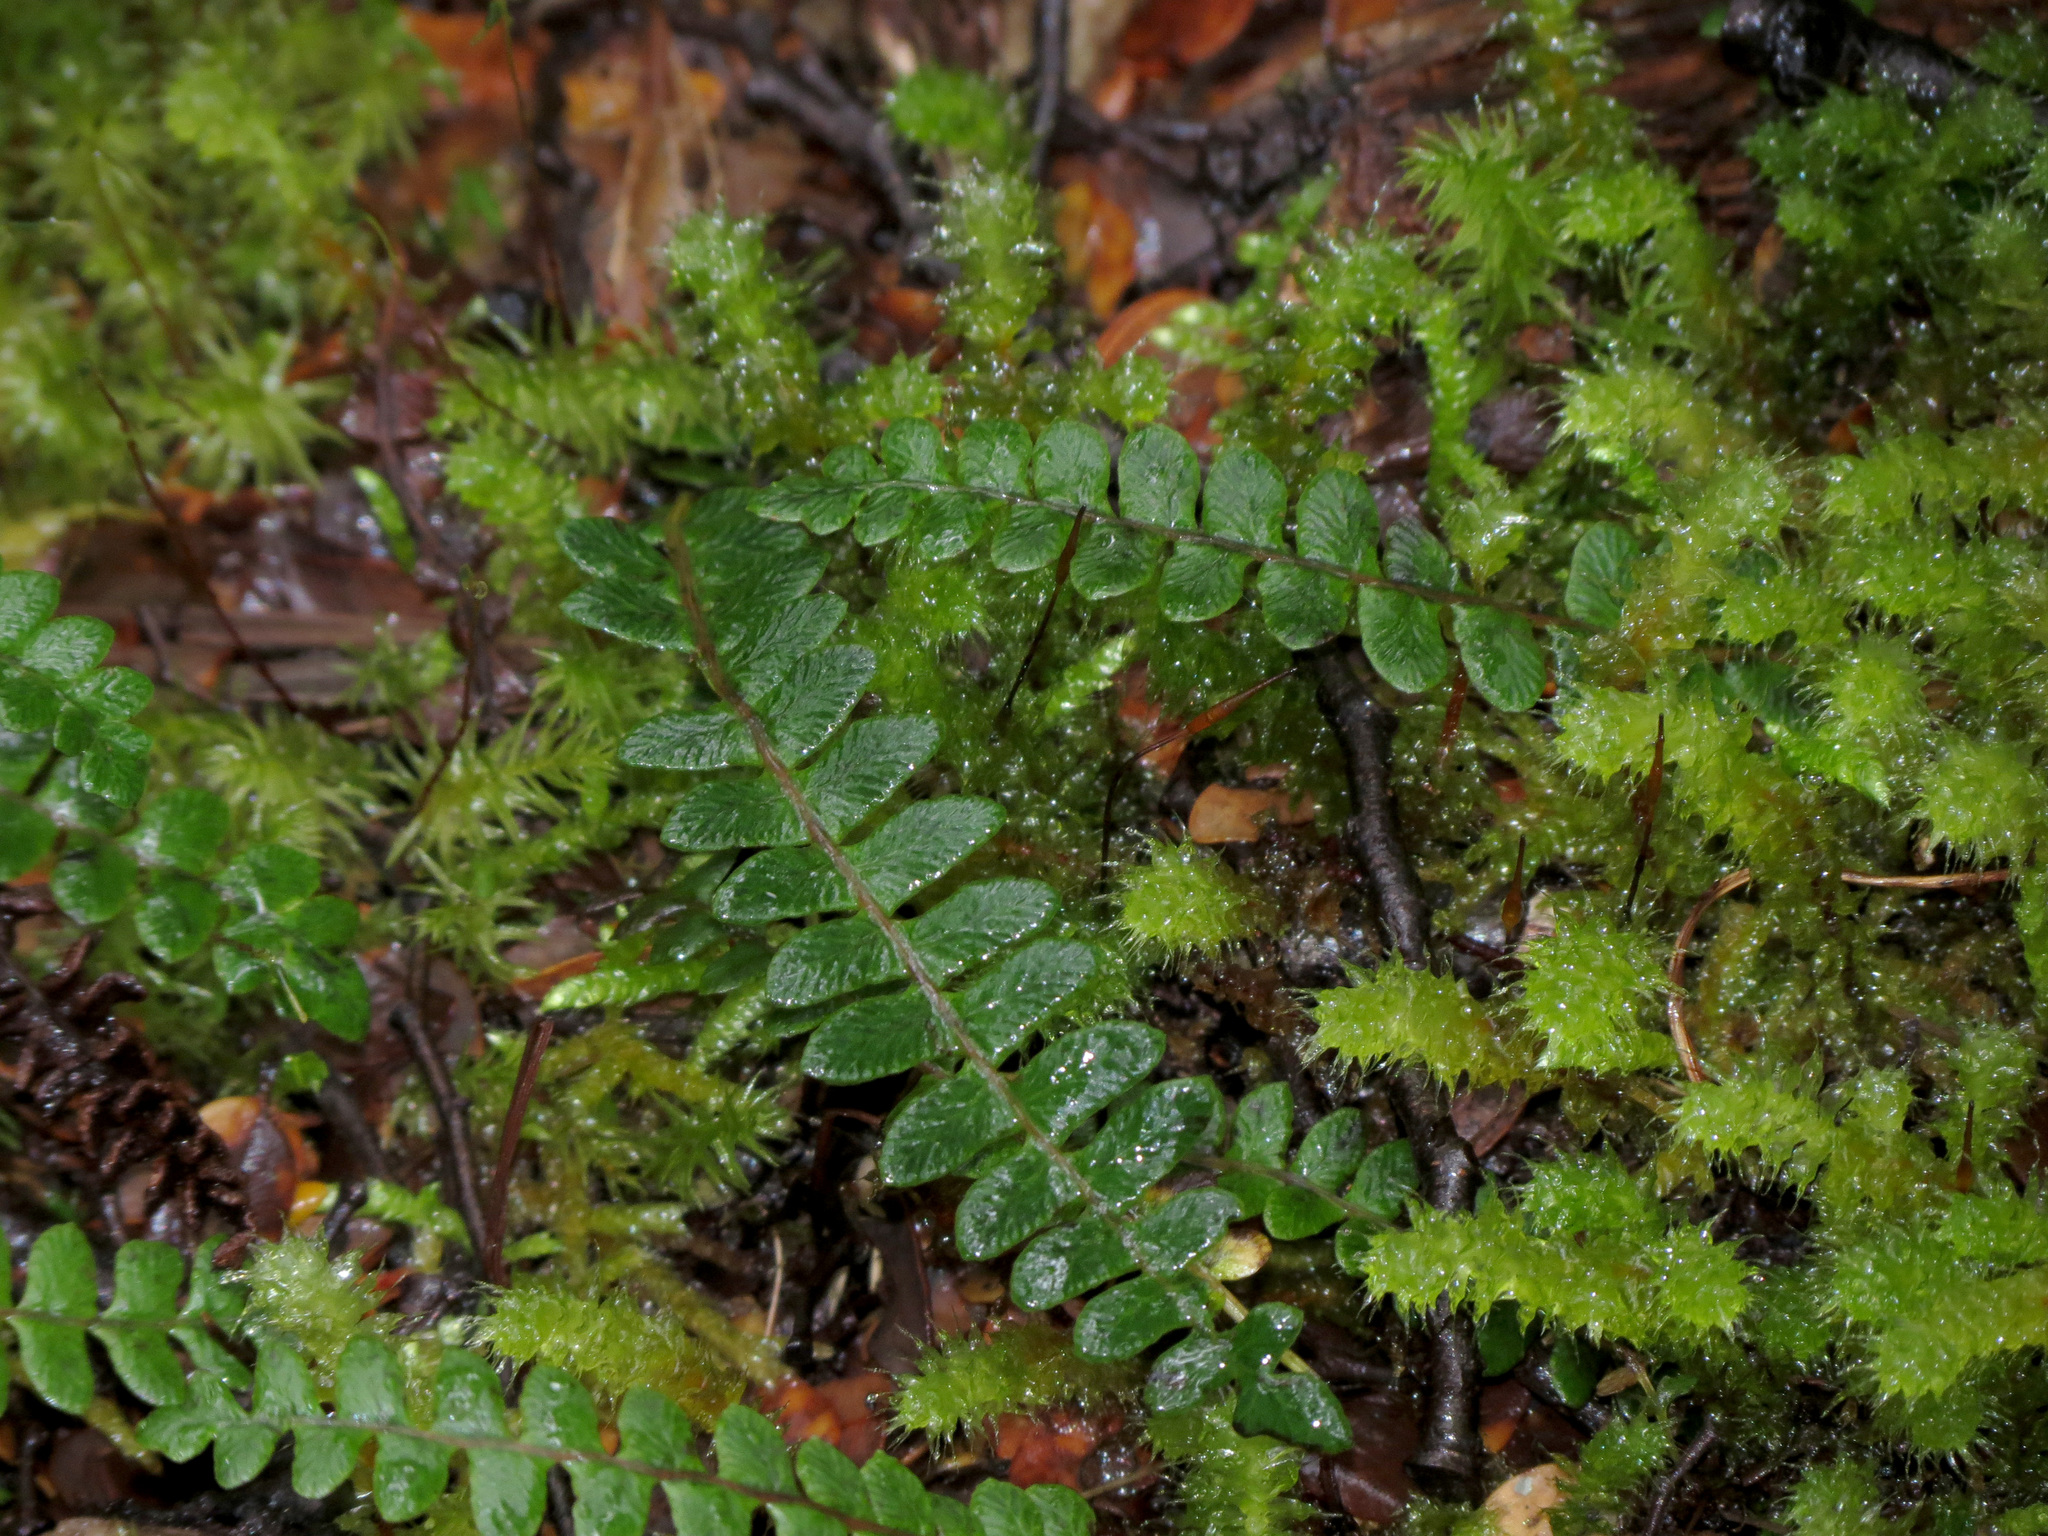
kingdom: Plantae
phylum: Tracheophyta
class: Polypodiopsida
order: Polypodiales
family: Blechnaceae
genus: Austroblechnum
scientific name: Austroblechnum penna-marina
